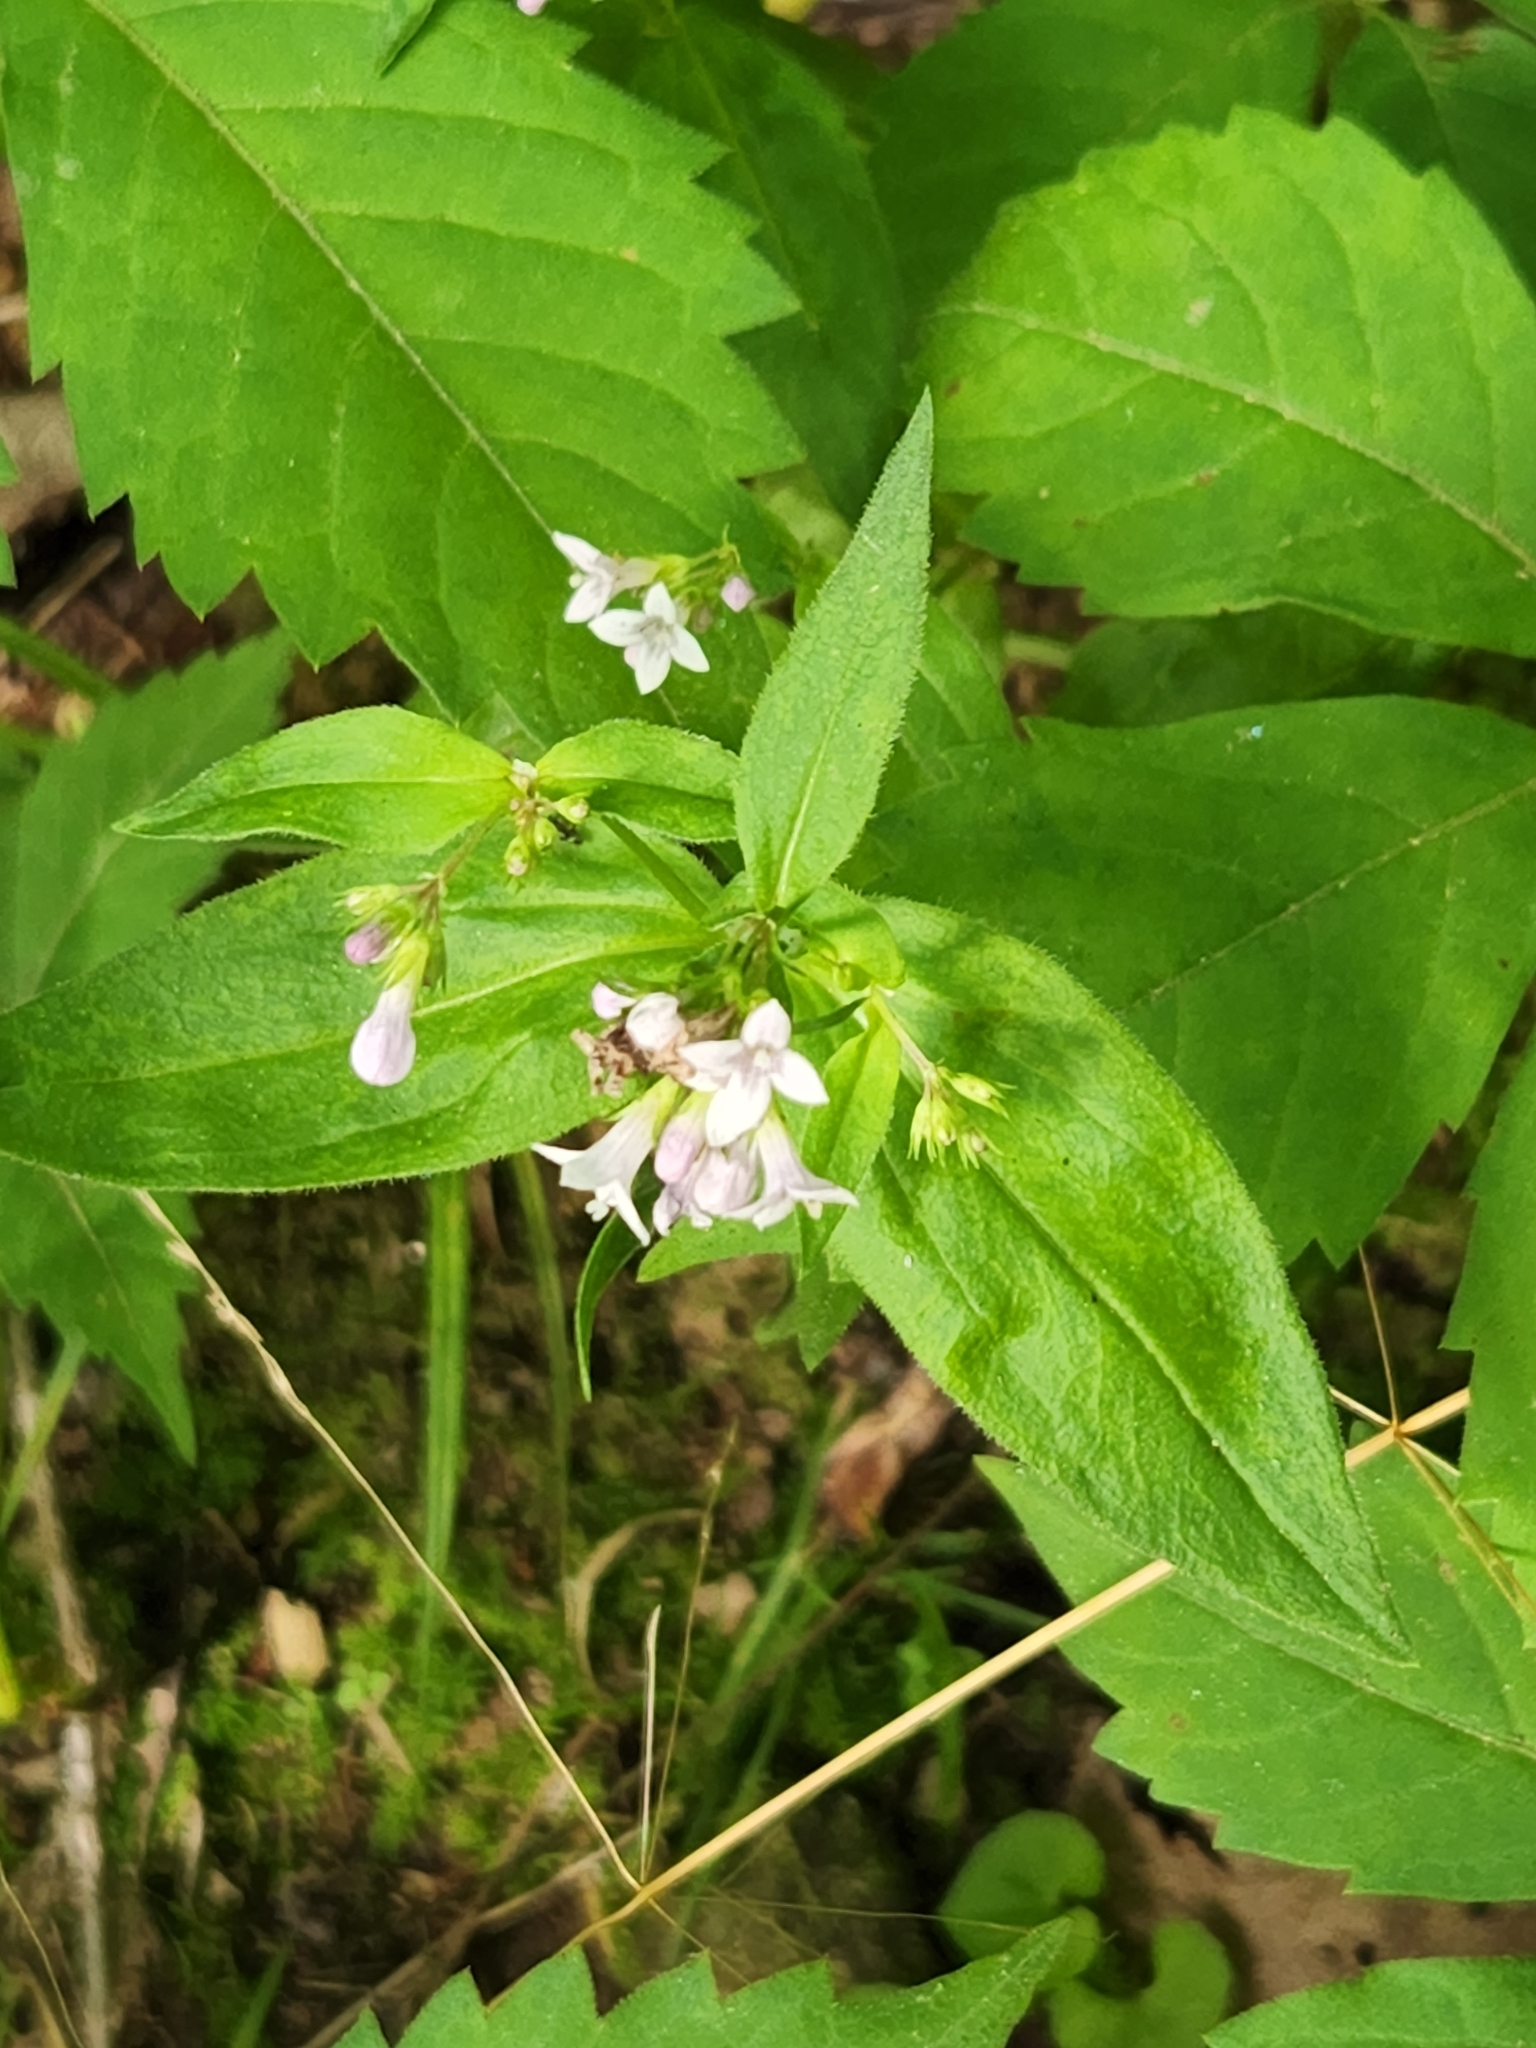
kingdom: Plantae
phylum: Tracheophyta
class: Magnoliopsida
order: Gentianales
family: Rubiaceae
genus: Houstonia
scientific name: Houstonia purpurea
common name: Summer bluet
